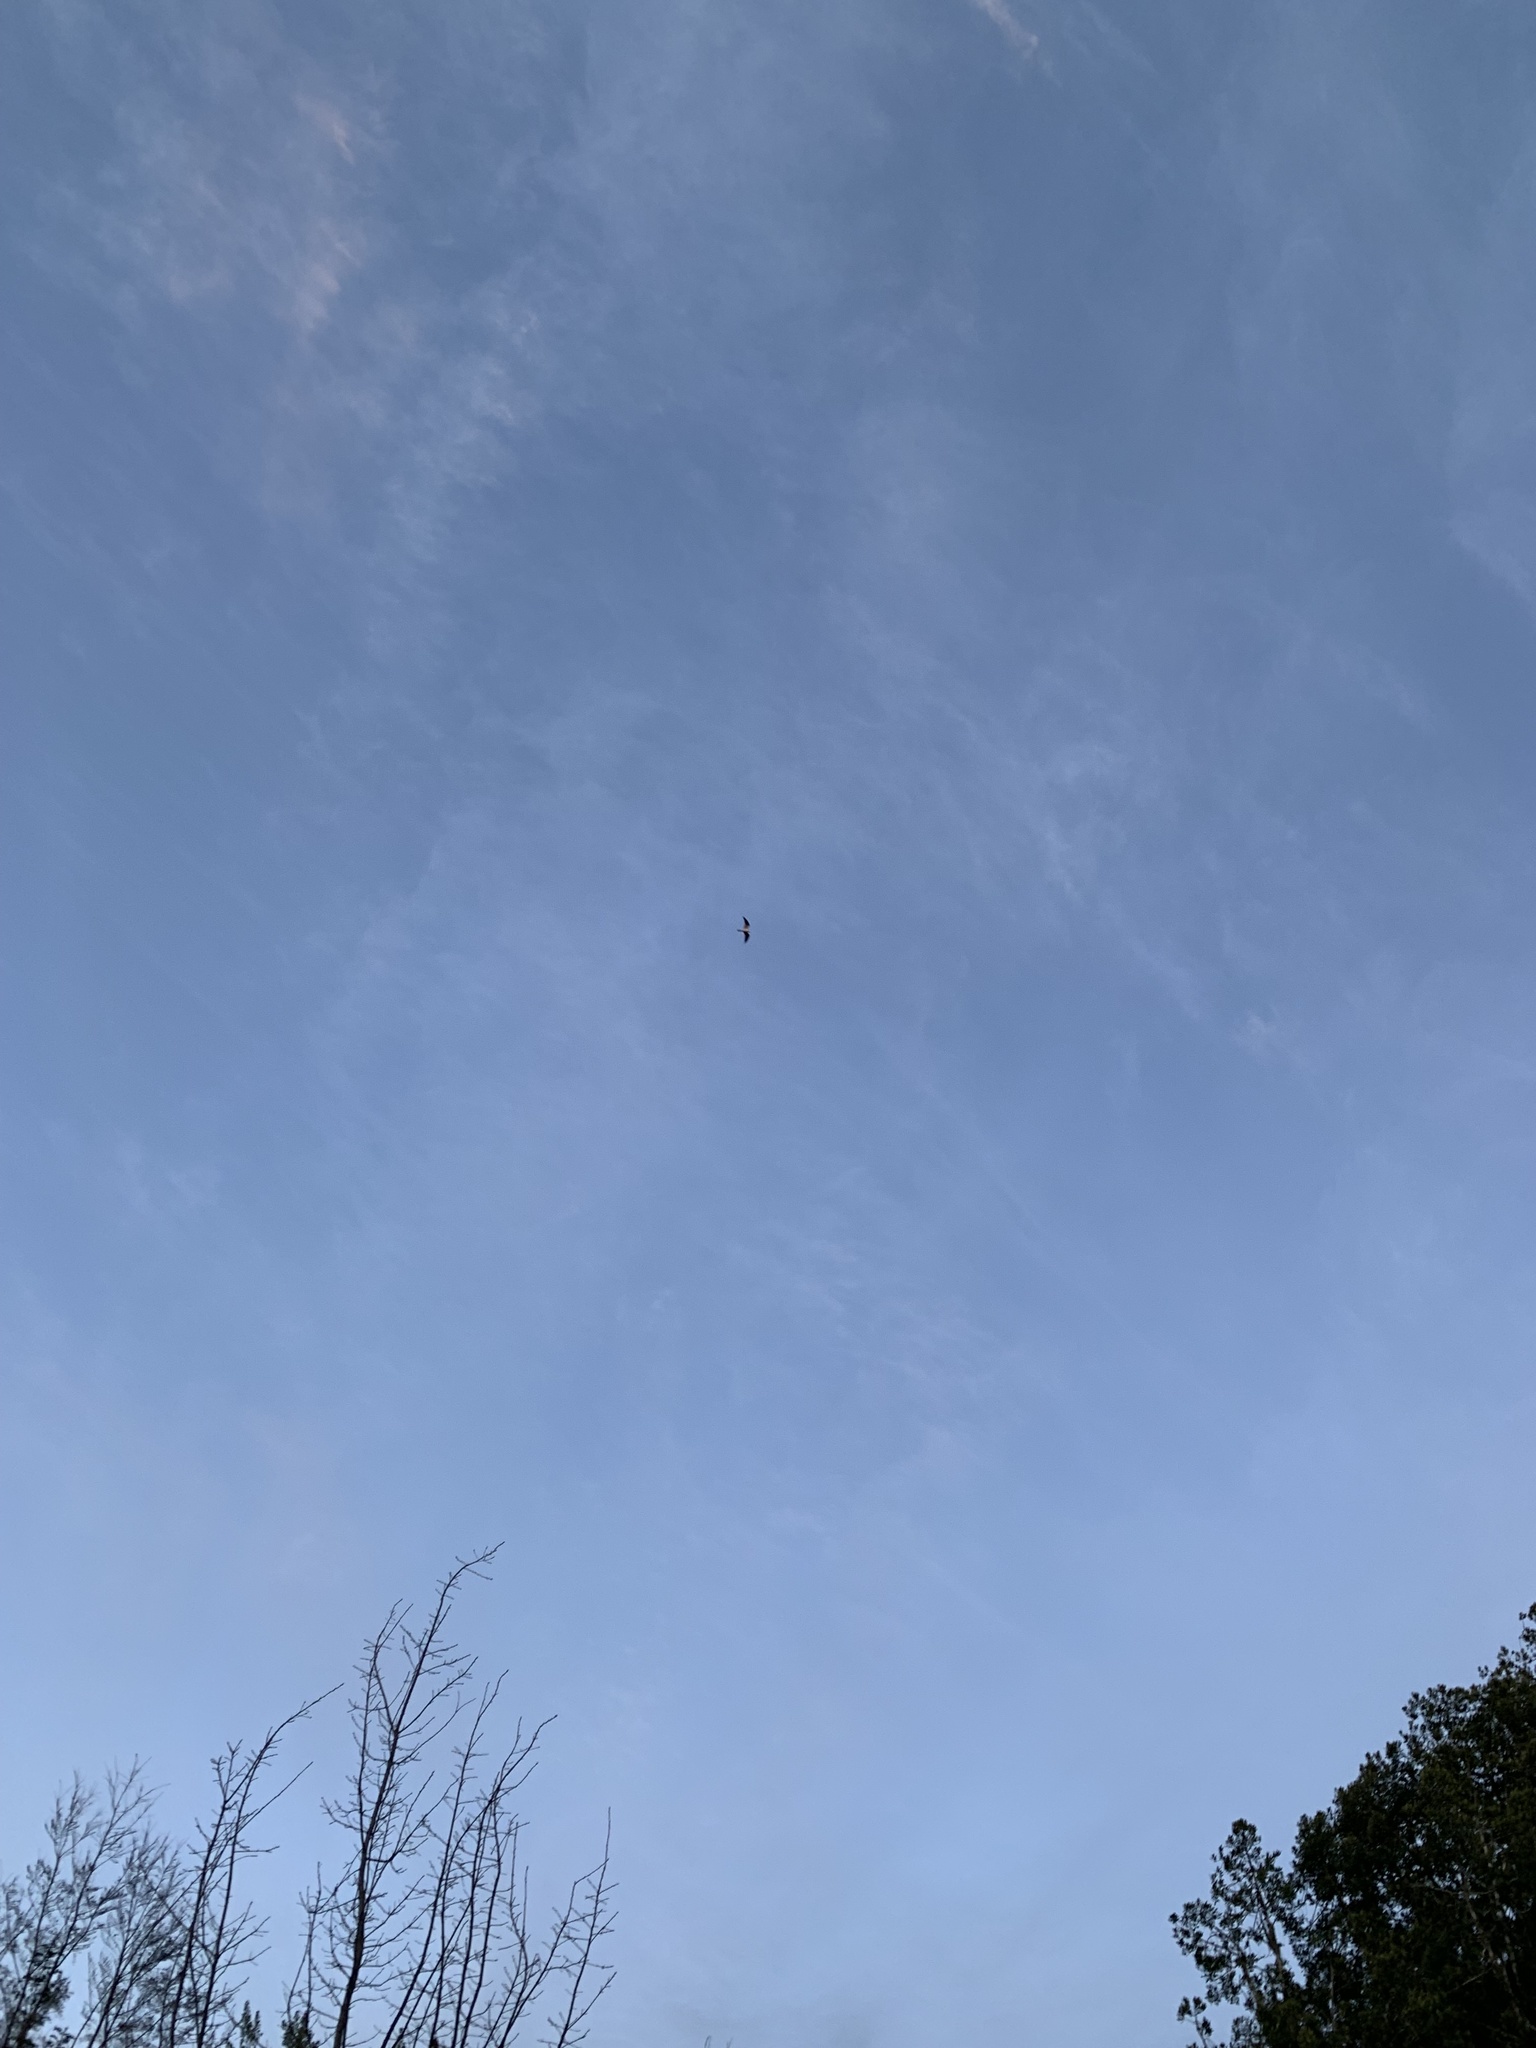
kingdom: Animalia
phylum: Chordata
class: Aves
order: Accipitriformes
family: Accipitridae
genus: Elanus
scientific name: Elanus leucurus
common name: White-tailed kite
